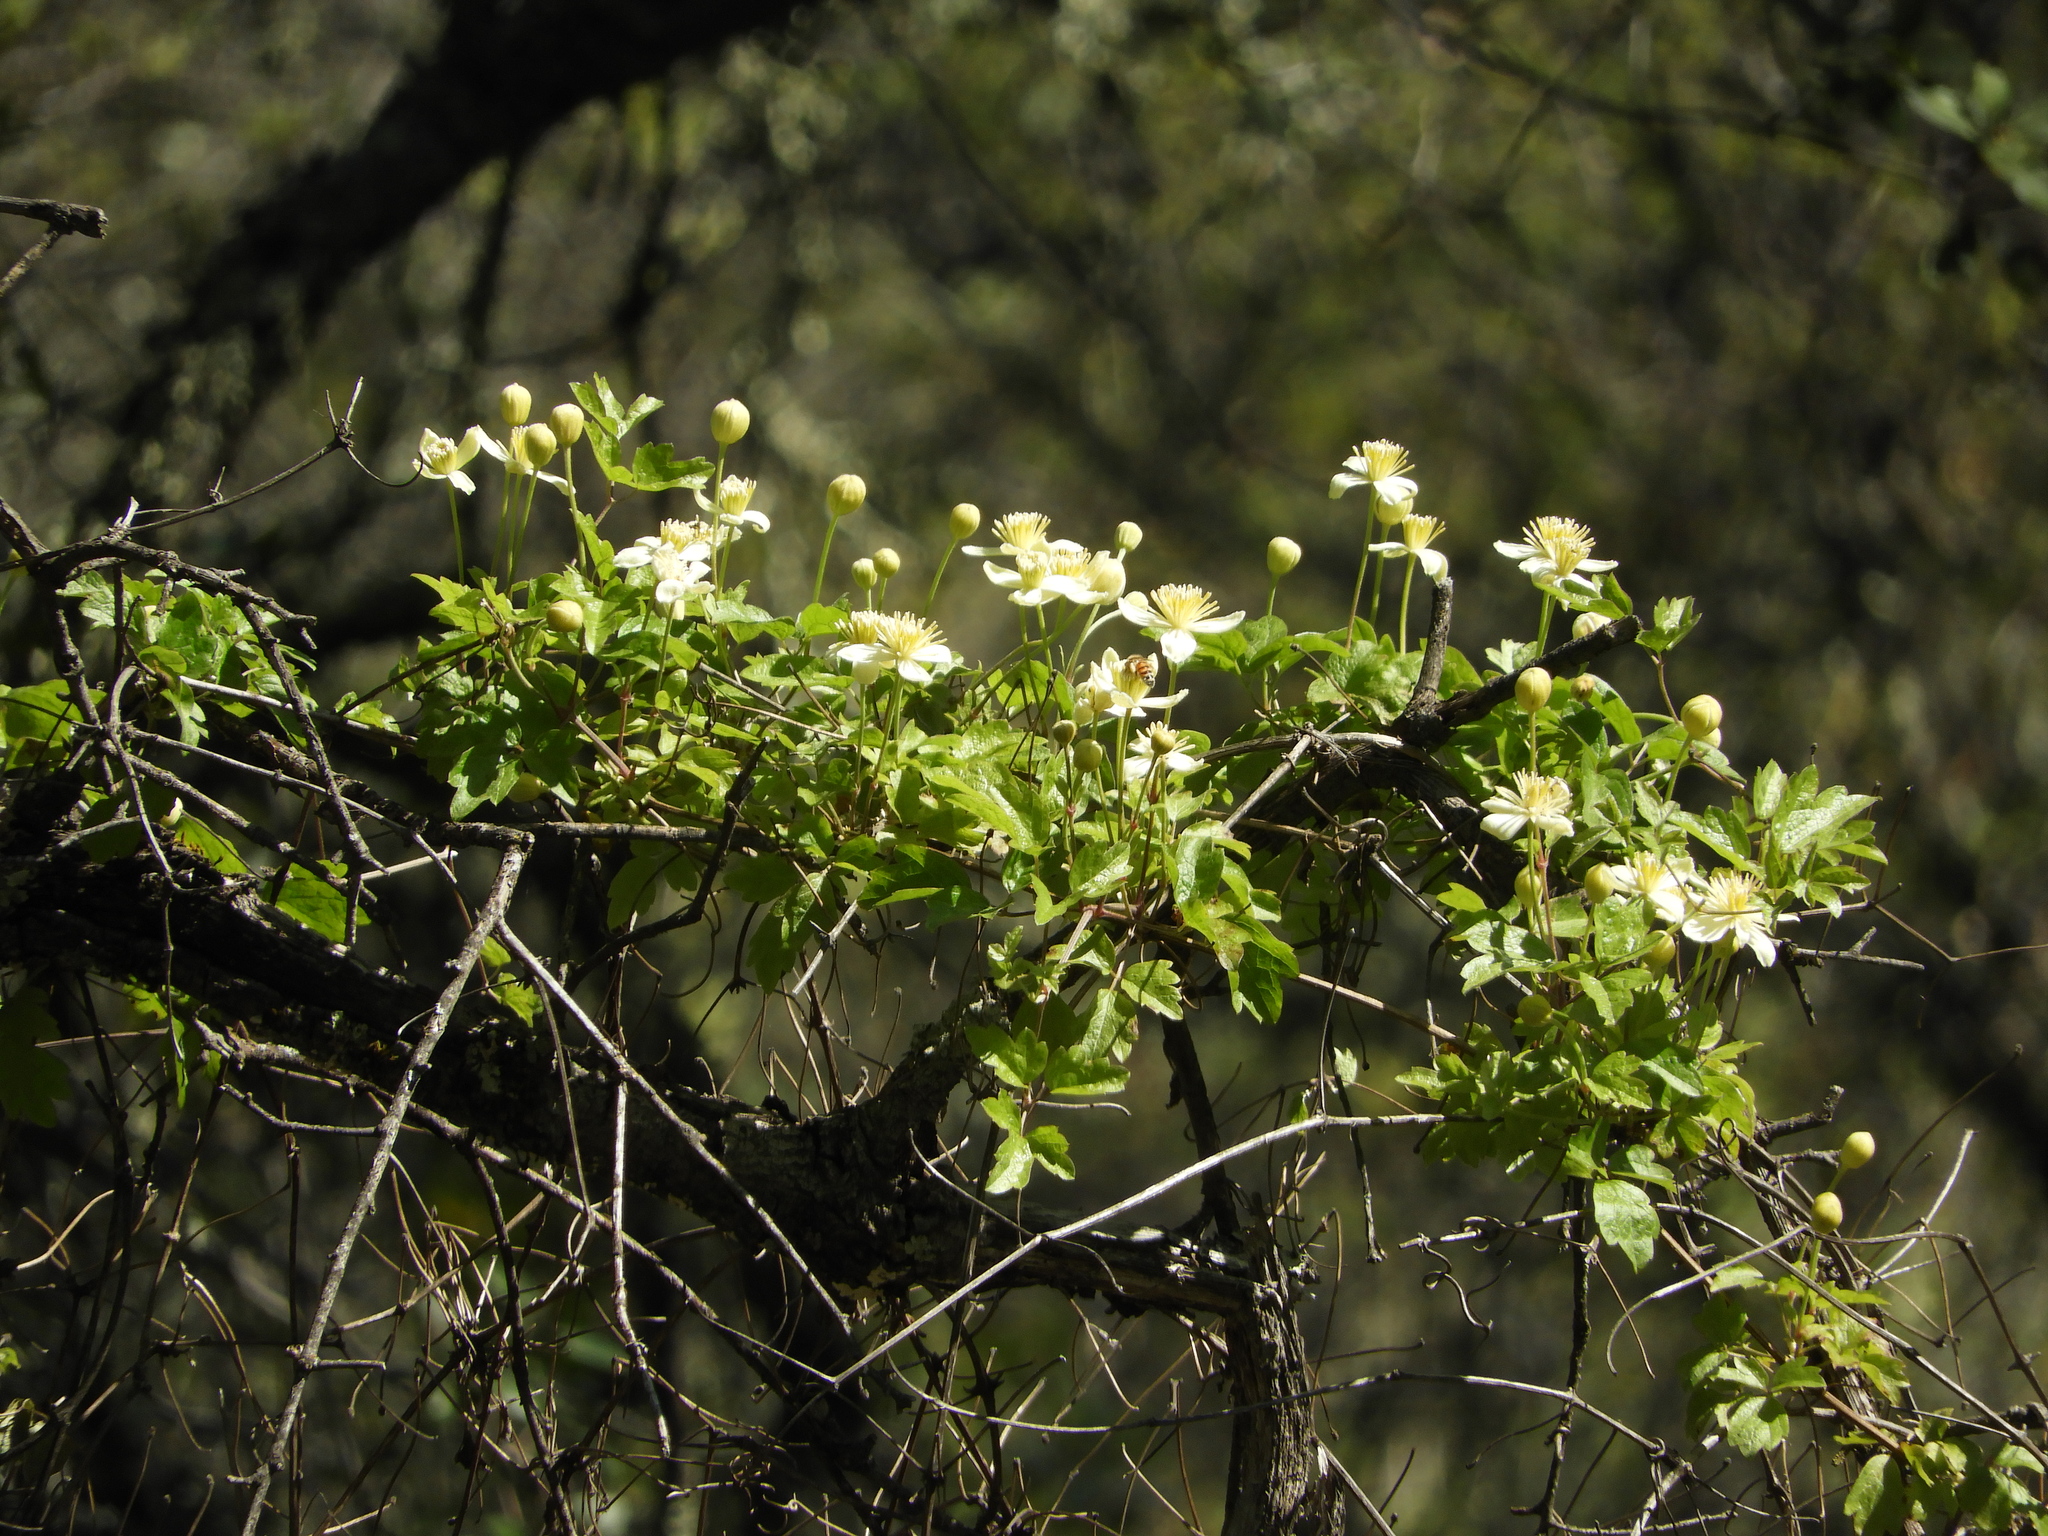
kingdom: Plantae
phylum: Tracheophyta
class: Magnoliopsida
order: Ranunculales
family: Ranunculaceae
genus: Clematis
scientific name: Clematis lasiantha
